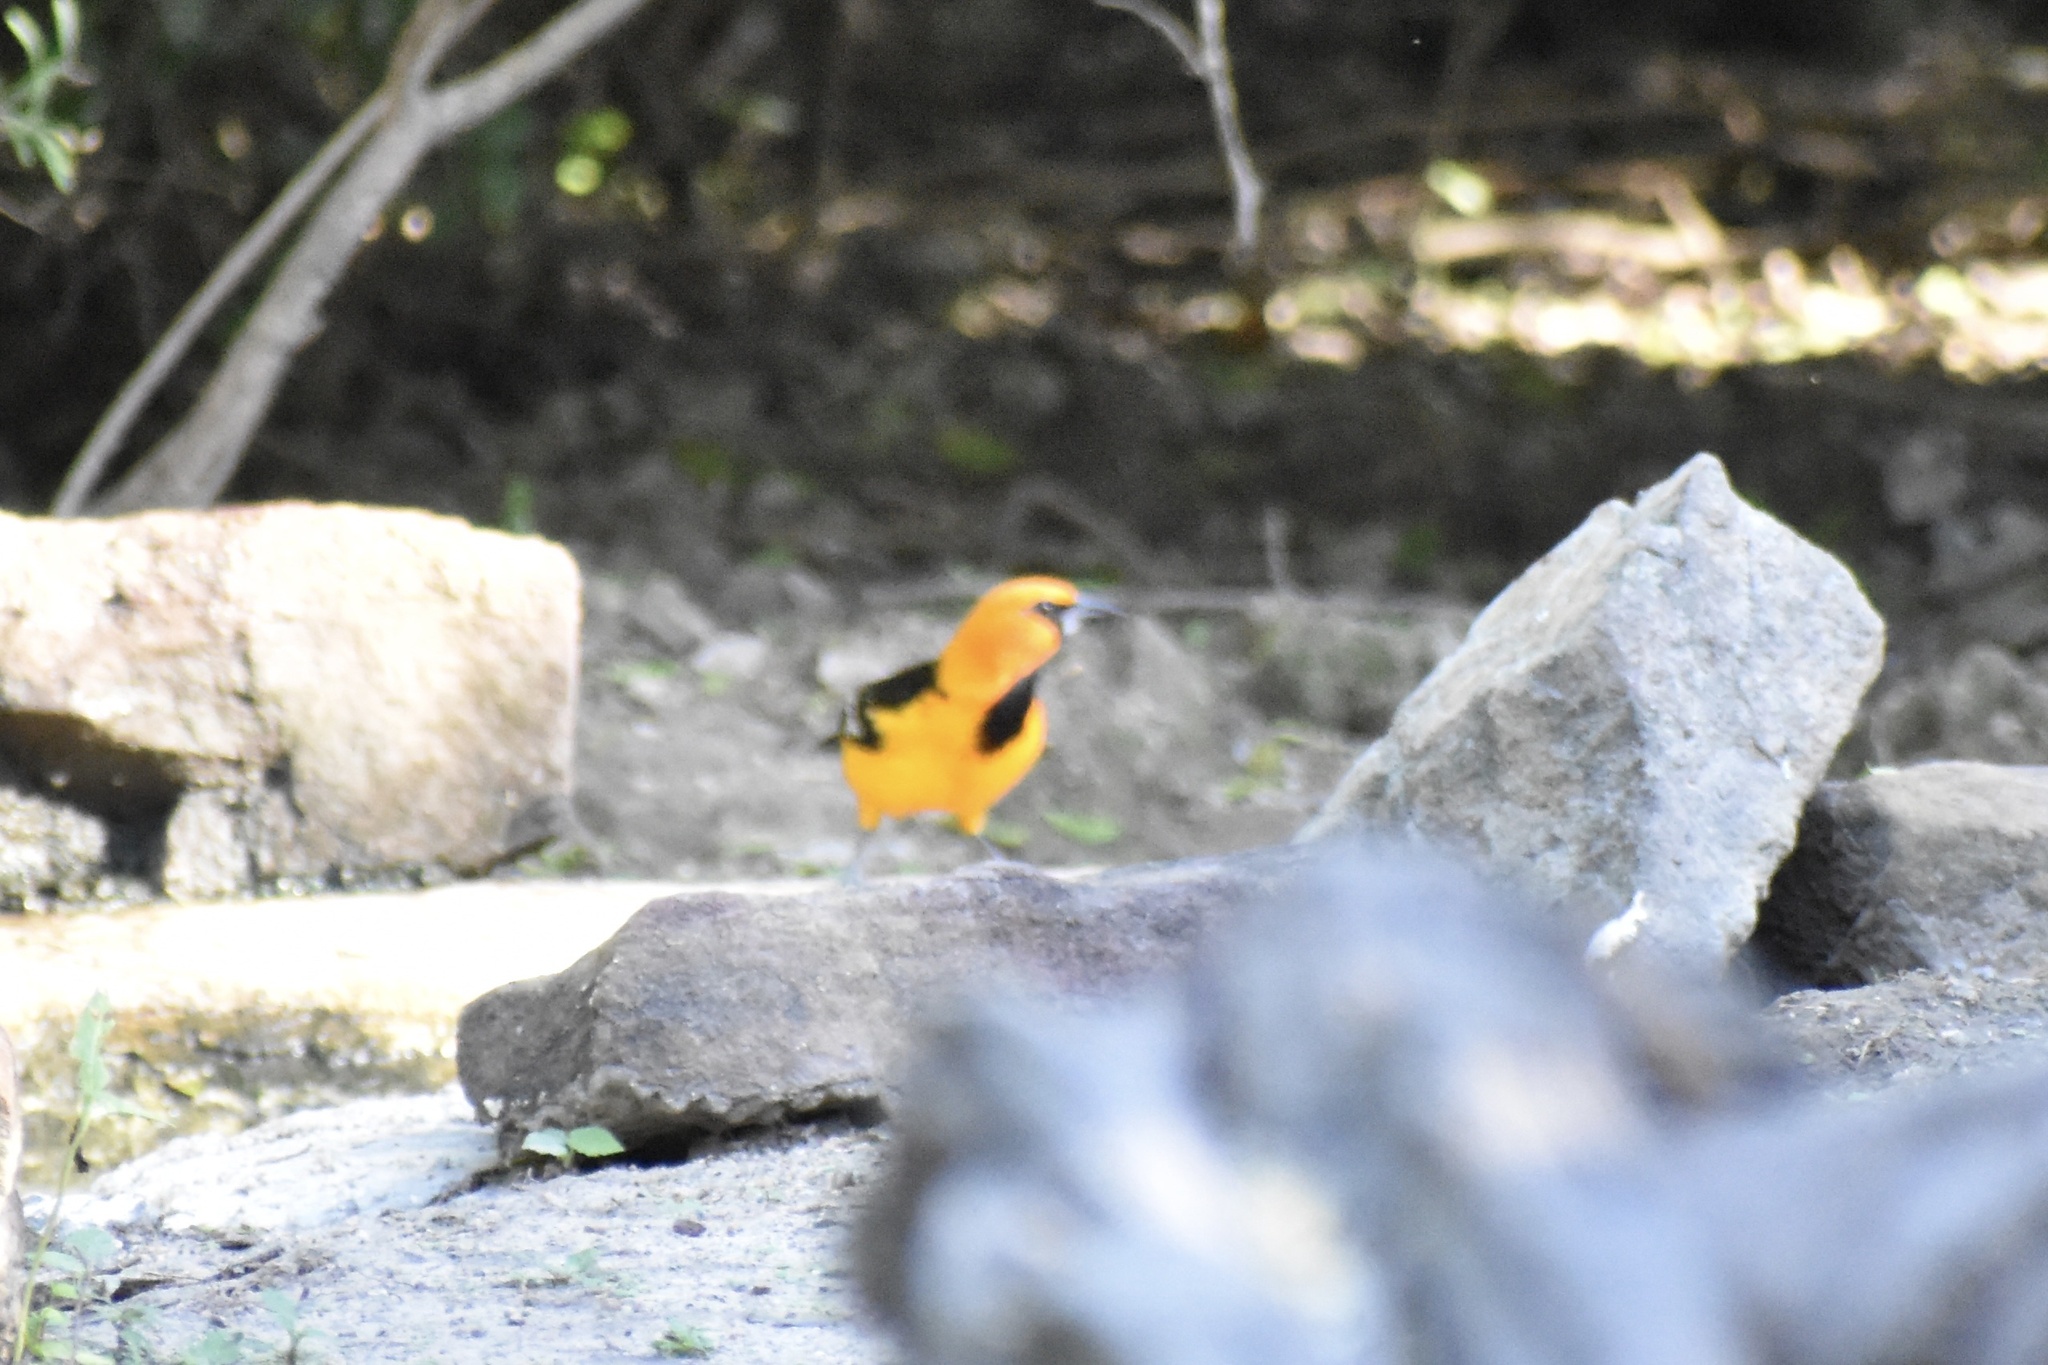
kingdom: Animalia
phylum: Chordata
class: Aves
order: Passeriformes
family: Icteridae
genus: Icterus
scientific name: Icterus gularis
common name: Altamira oriole
